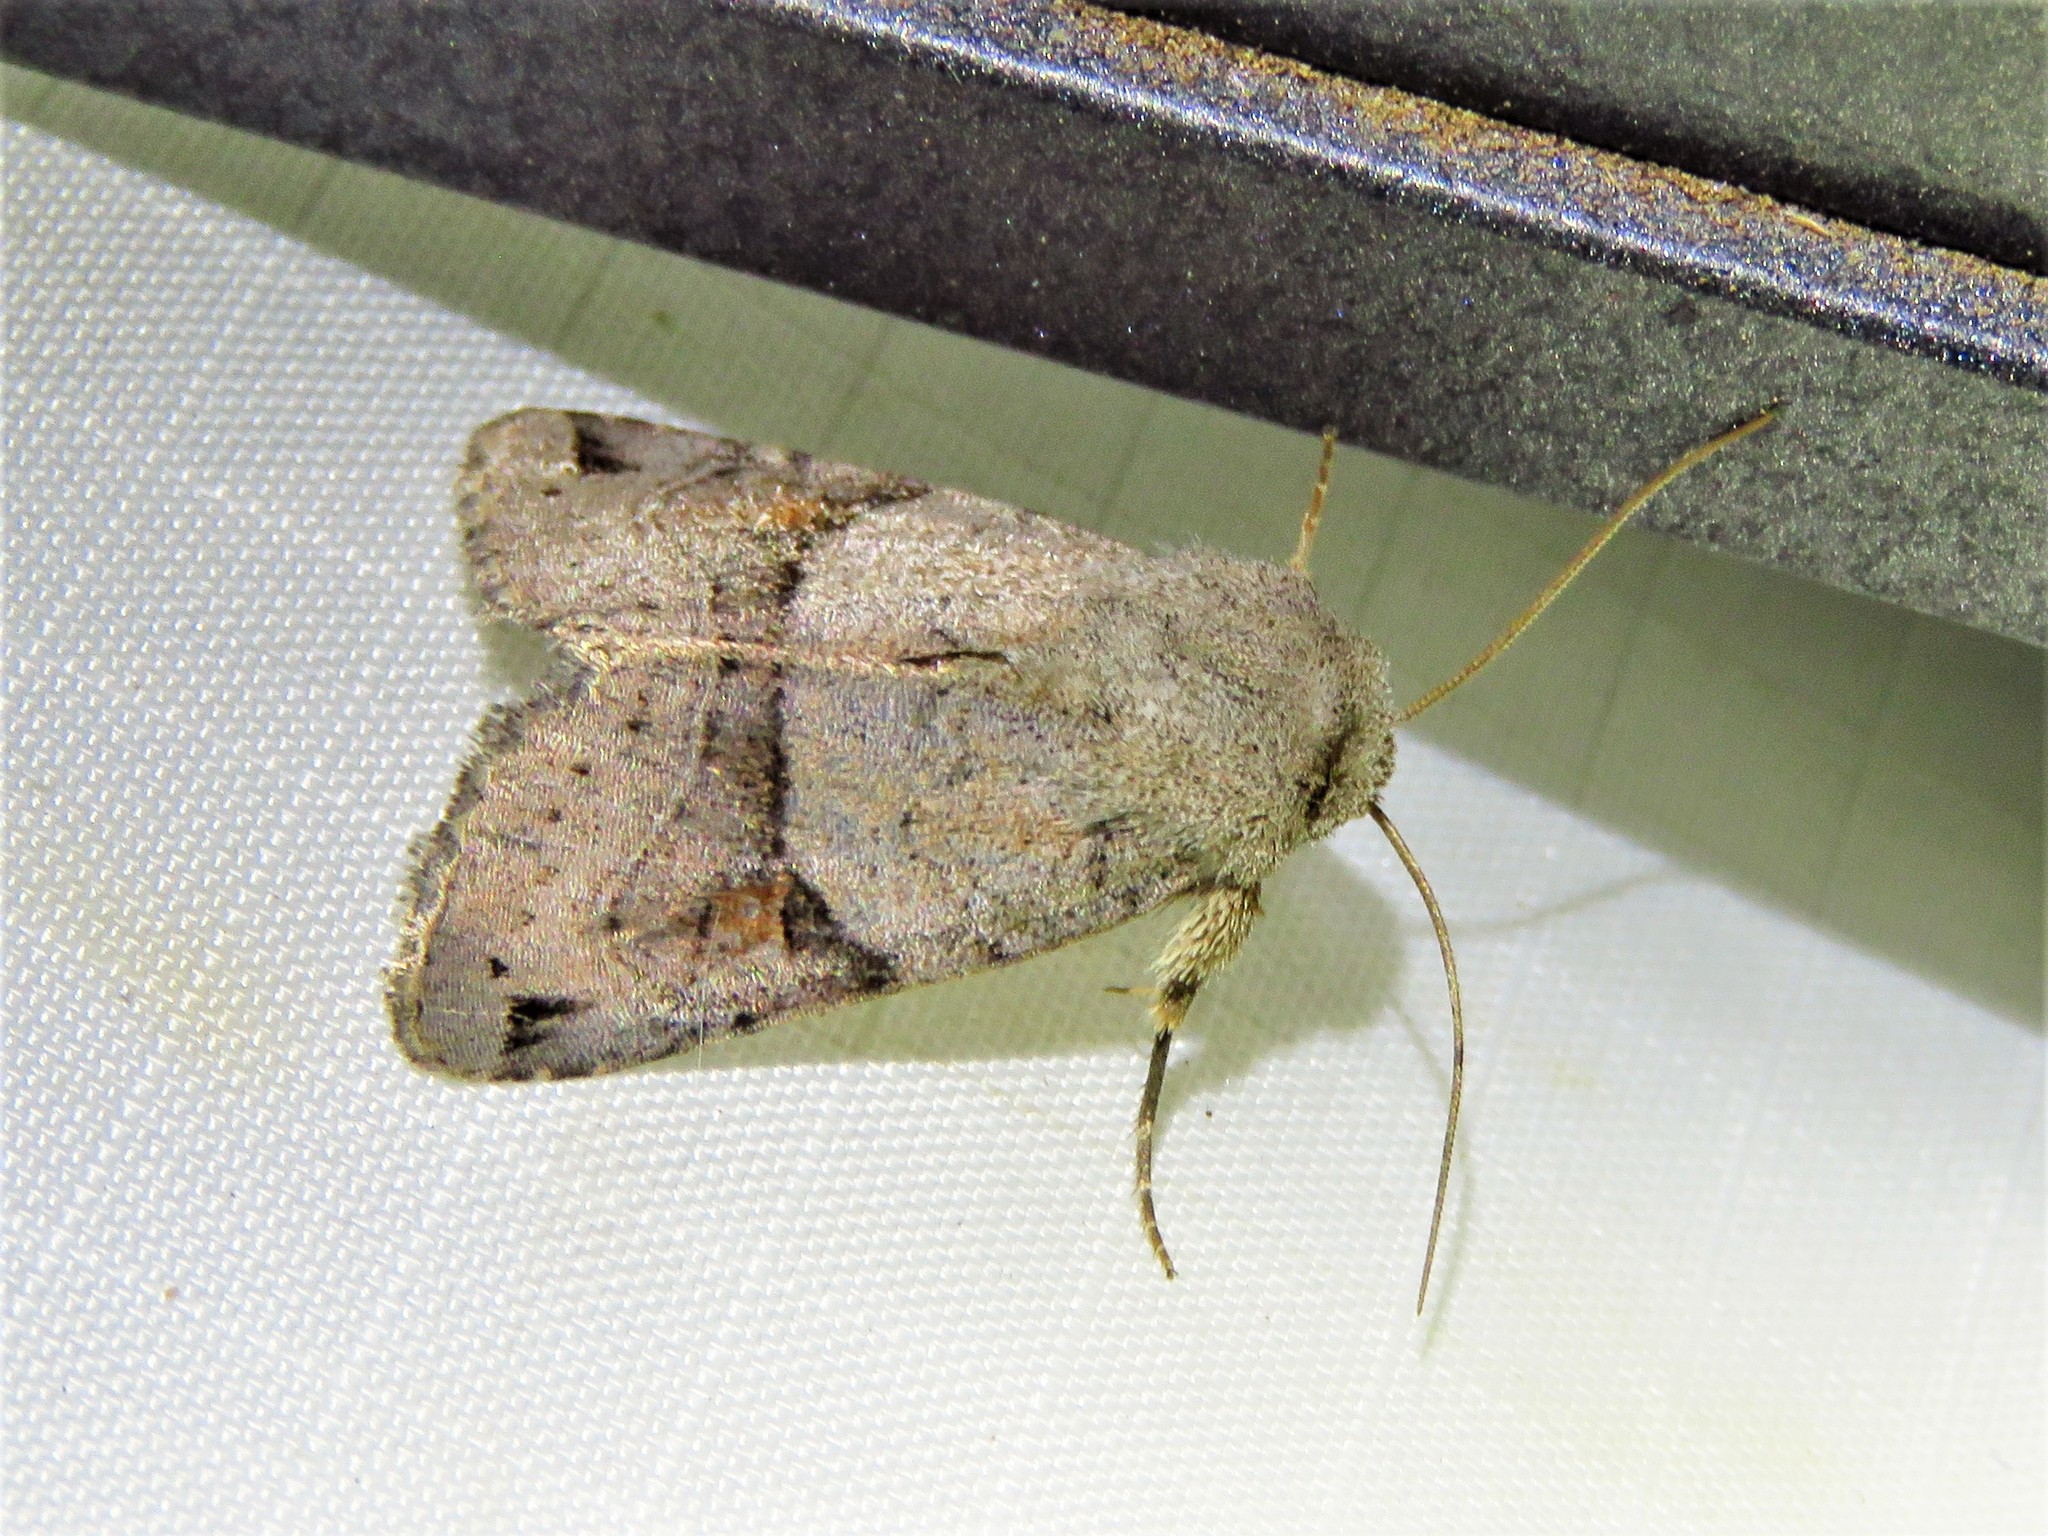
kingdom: Animalia
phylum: Arthropoda
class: Insecta
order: Lepidoptera
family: Noctuidae
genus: Ulolonche
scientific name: Ulolonche disticha
